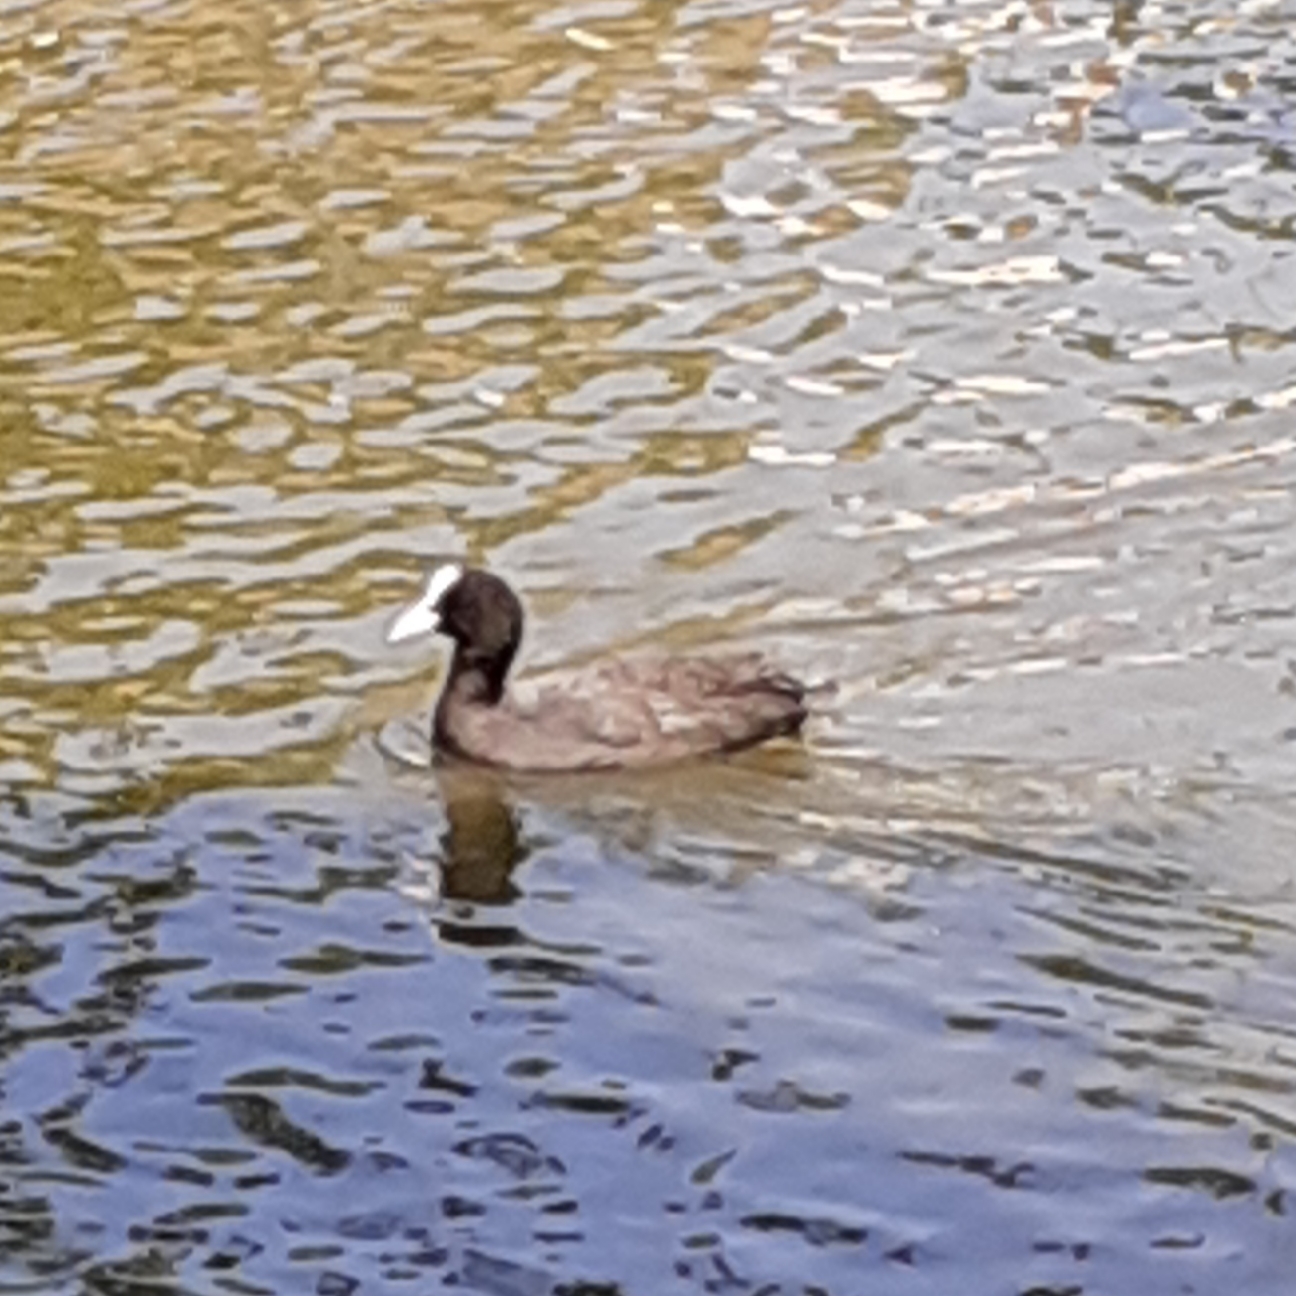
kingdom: Animalia
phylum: Chordata
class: Aves
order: Gruiformes
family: Rallidae
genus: Fulica
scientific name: Fulica atra
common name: Eurasian coot
